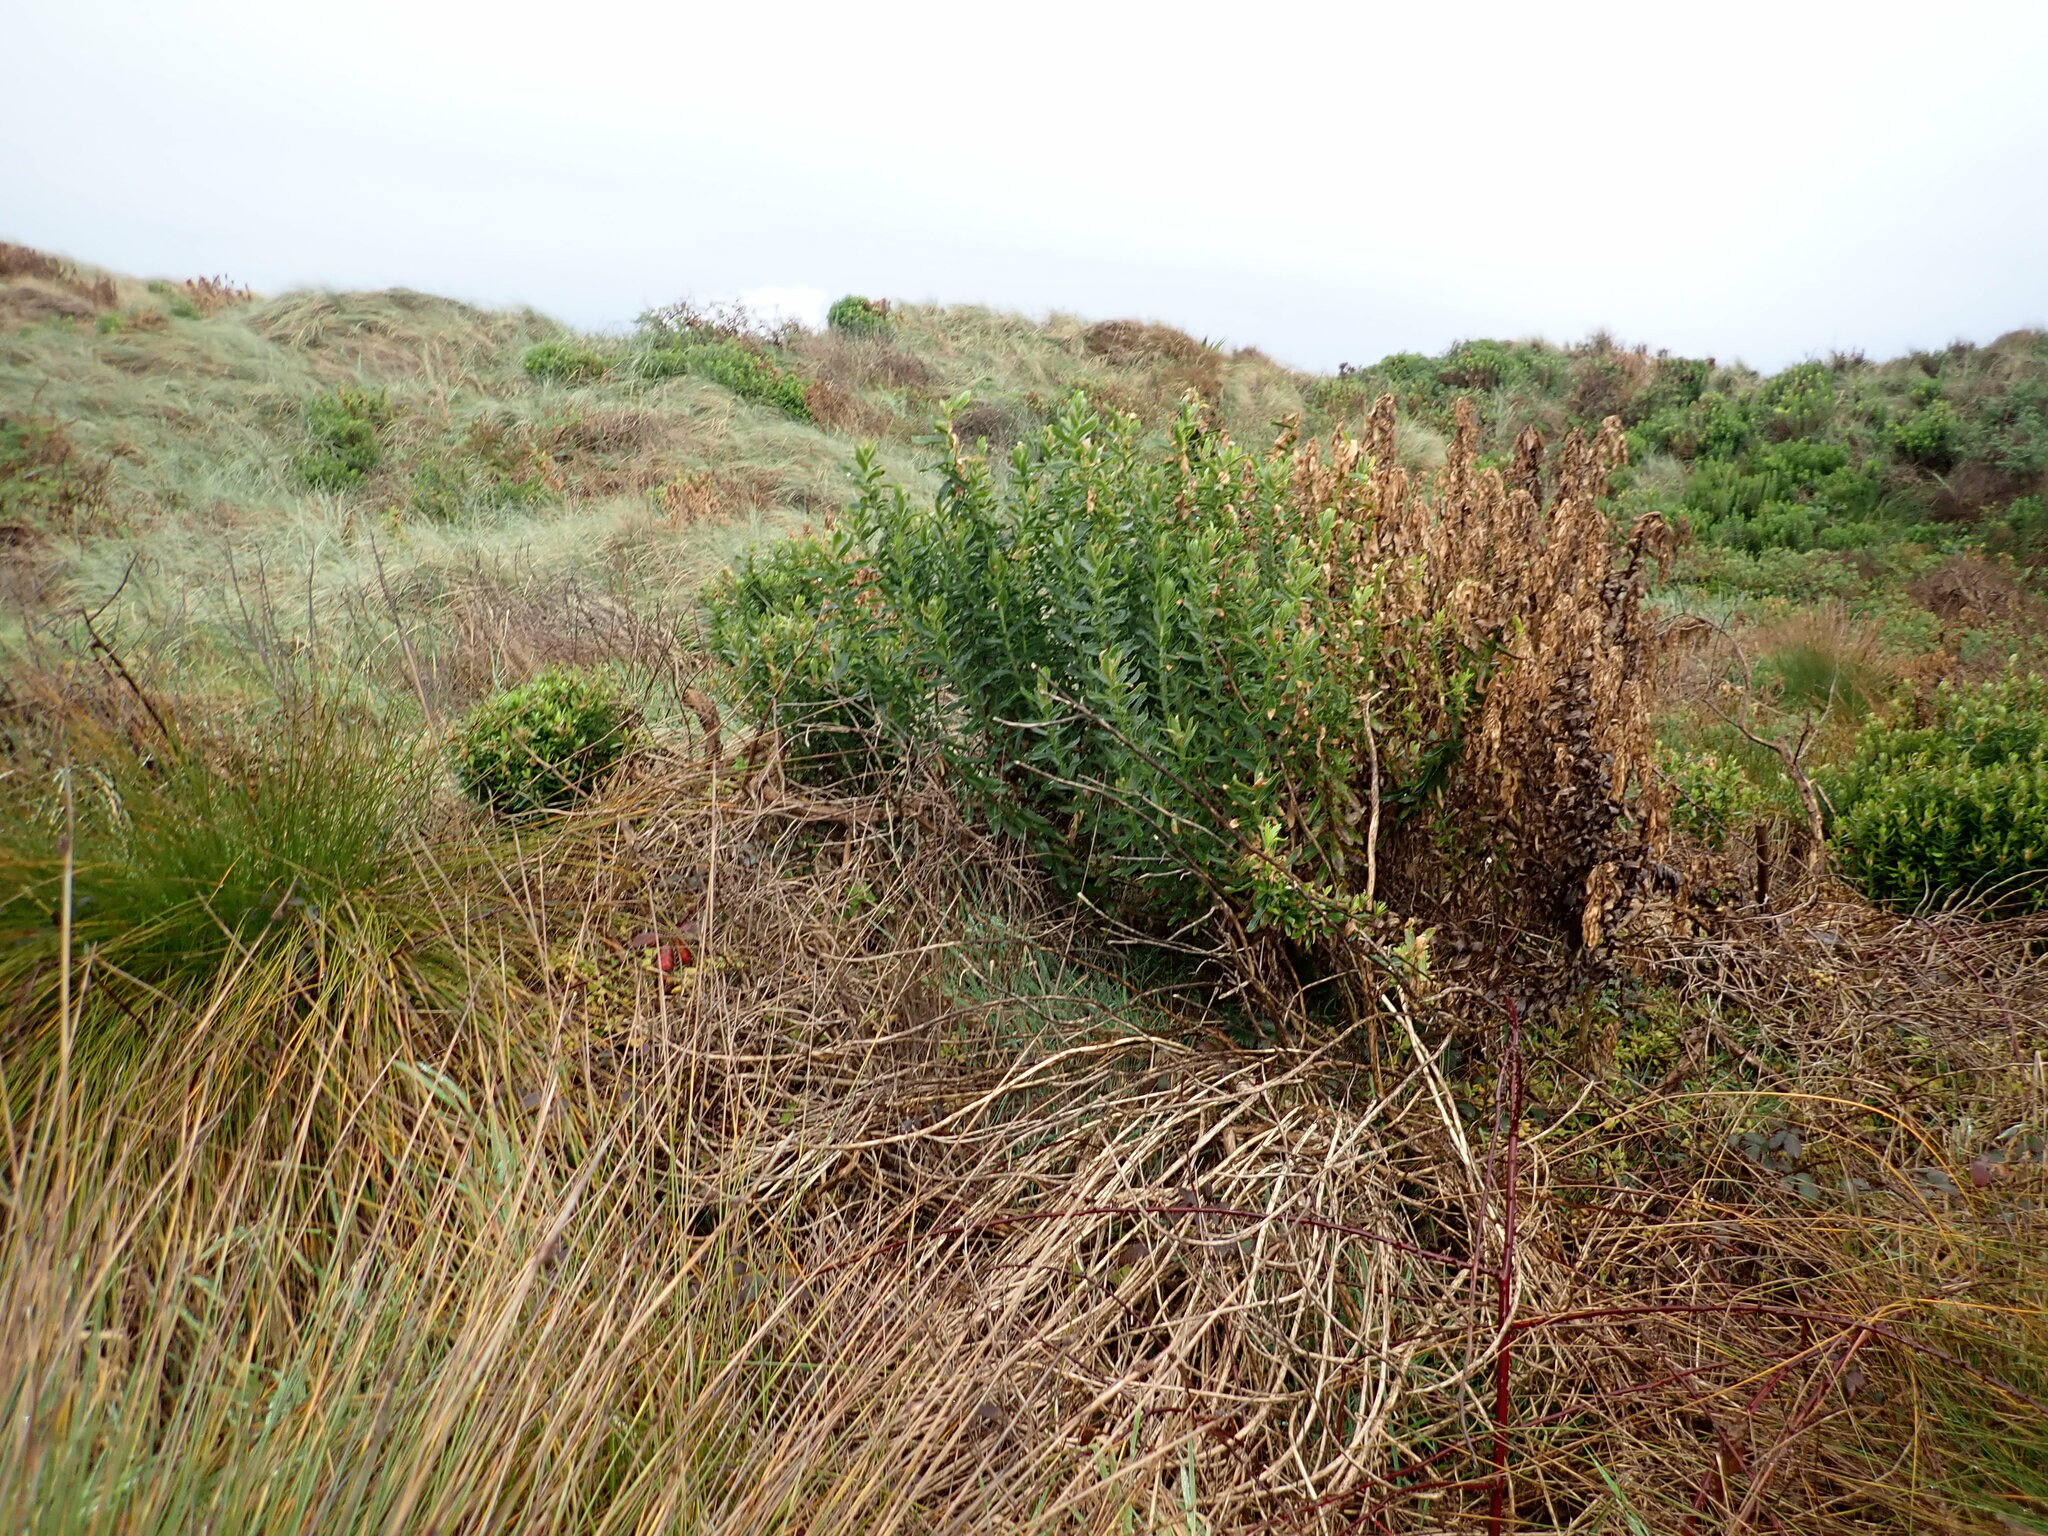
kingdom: Plantae
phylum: Tracheophyta
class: Magnoliopsida
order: Asterales
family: Asteraceae
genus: Senecio
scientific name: Senecio glastifolius
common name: Woad-leaved ragwort
